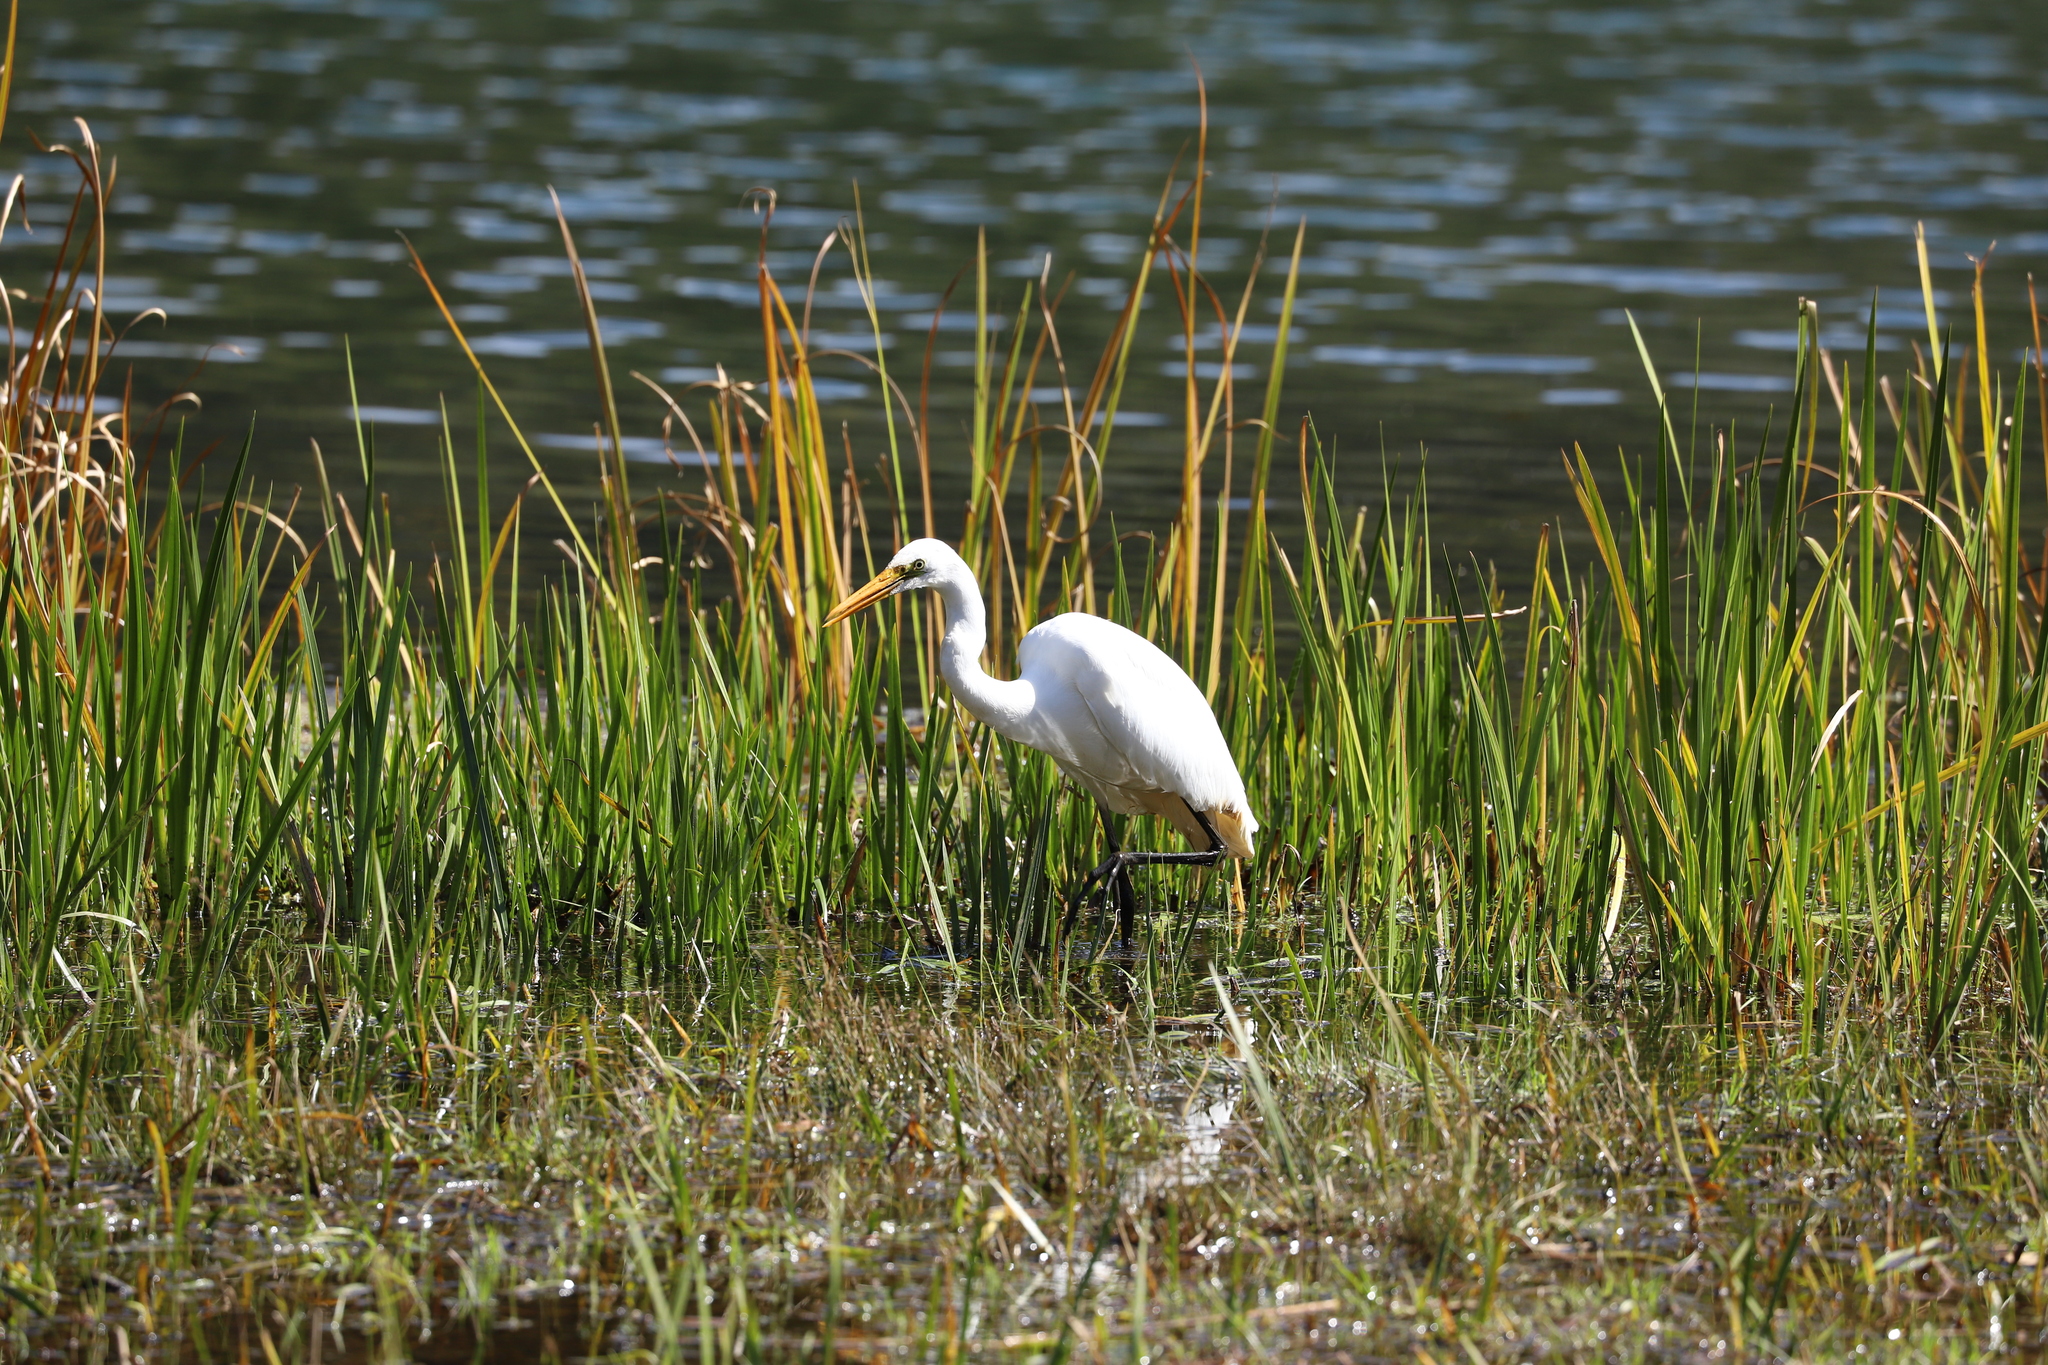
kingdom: Animalia
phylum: Chordata
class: Aves
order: Pelecaniformes
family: Ardeidae
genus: Ardea
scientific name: Ardea alba
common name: Great egret
